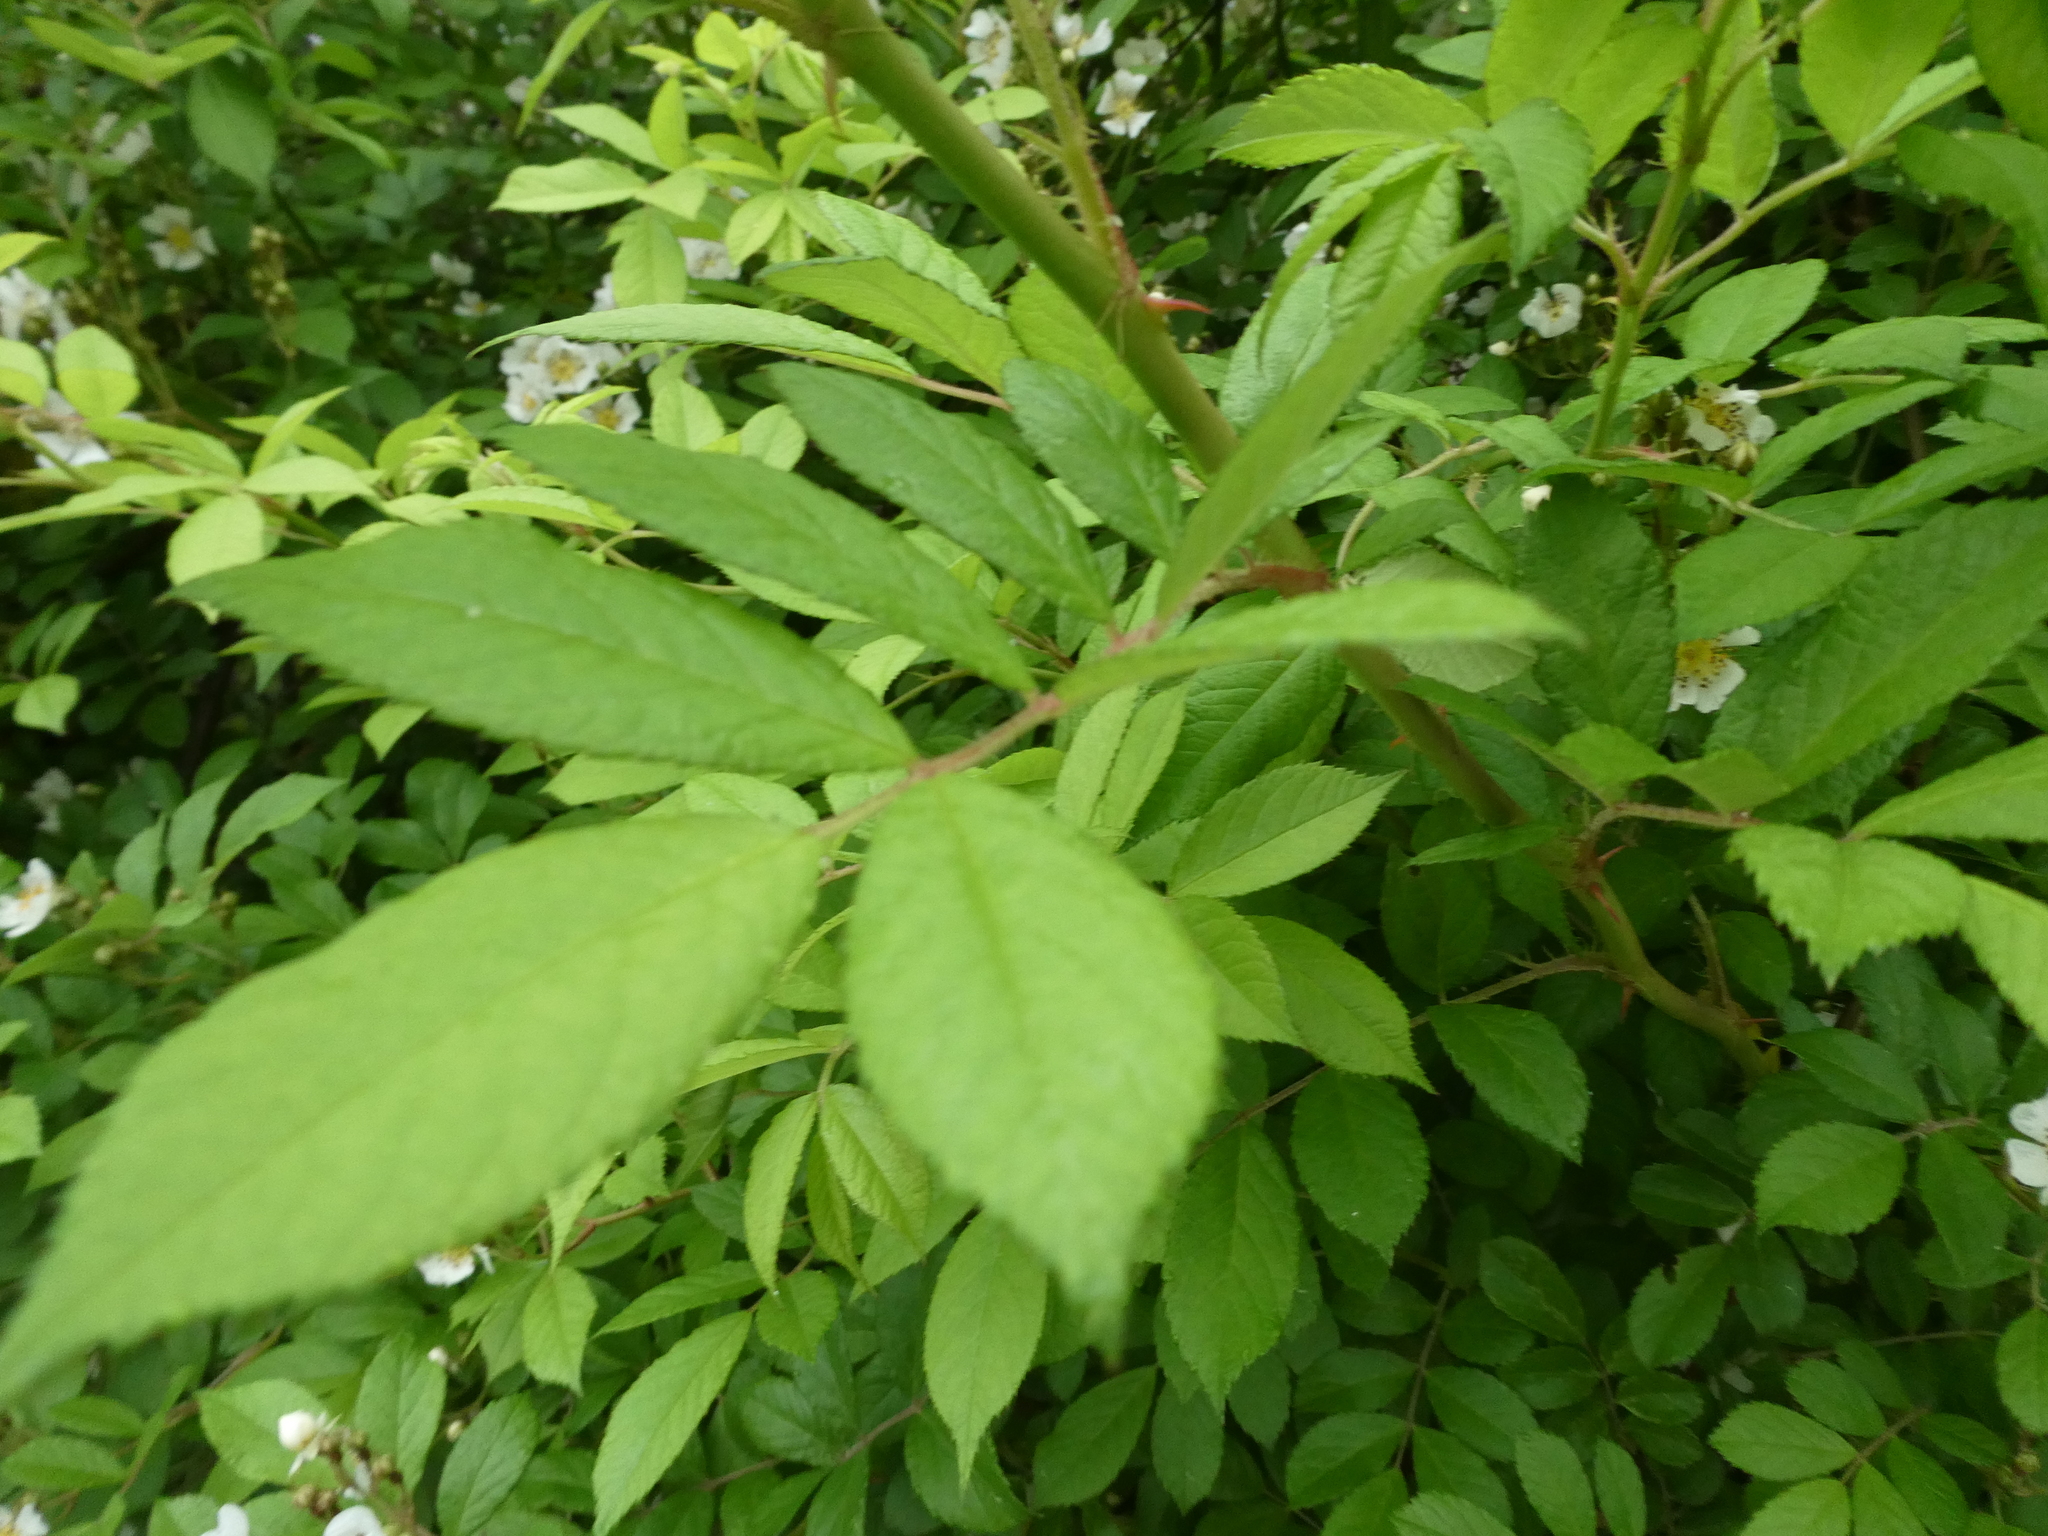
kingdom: Plantae
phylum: Tracheophyta
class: Magnoliopsida
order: Rosales
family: Rosaceae
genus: Rosa
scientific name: Rosa multiflora
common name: Multiflora rose
